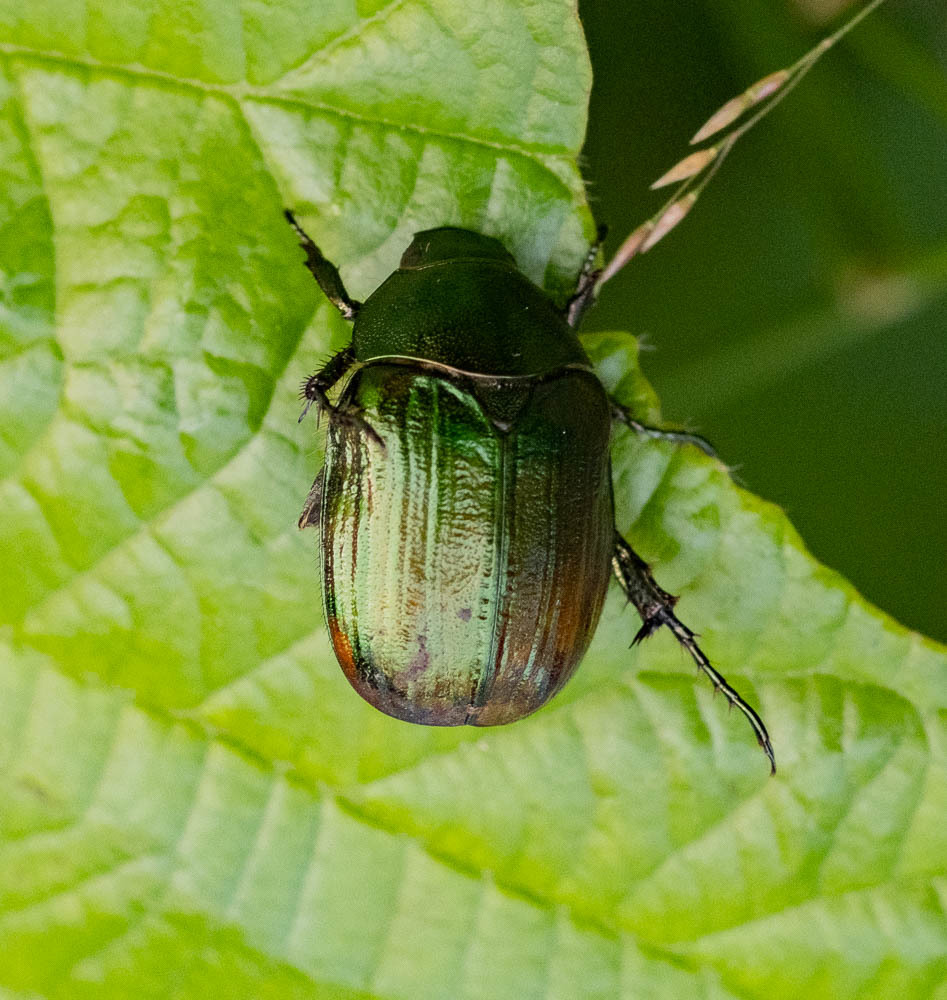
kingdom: Animalia
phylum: Arthropoda
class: Insecta
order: Coleoptera
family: Scarabaeidae
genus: Anomala
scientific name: Anomala dubia
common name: Dune chafer
